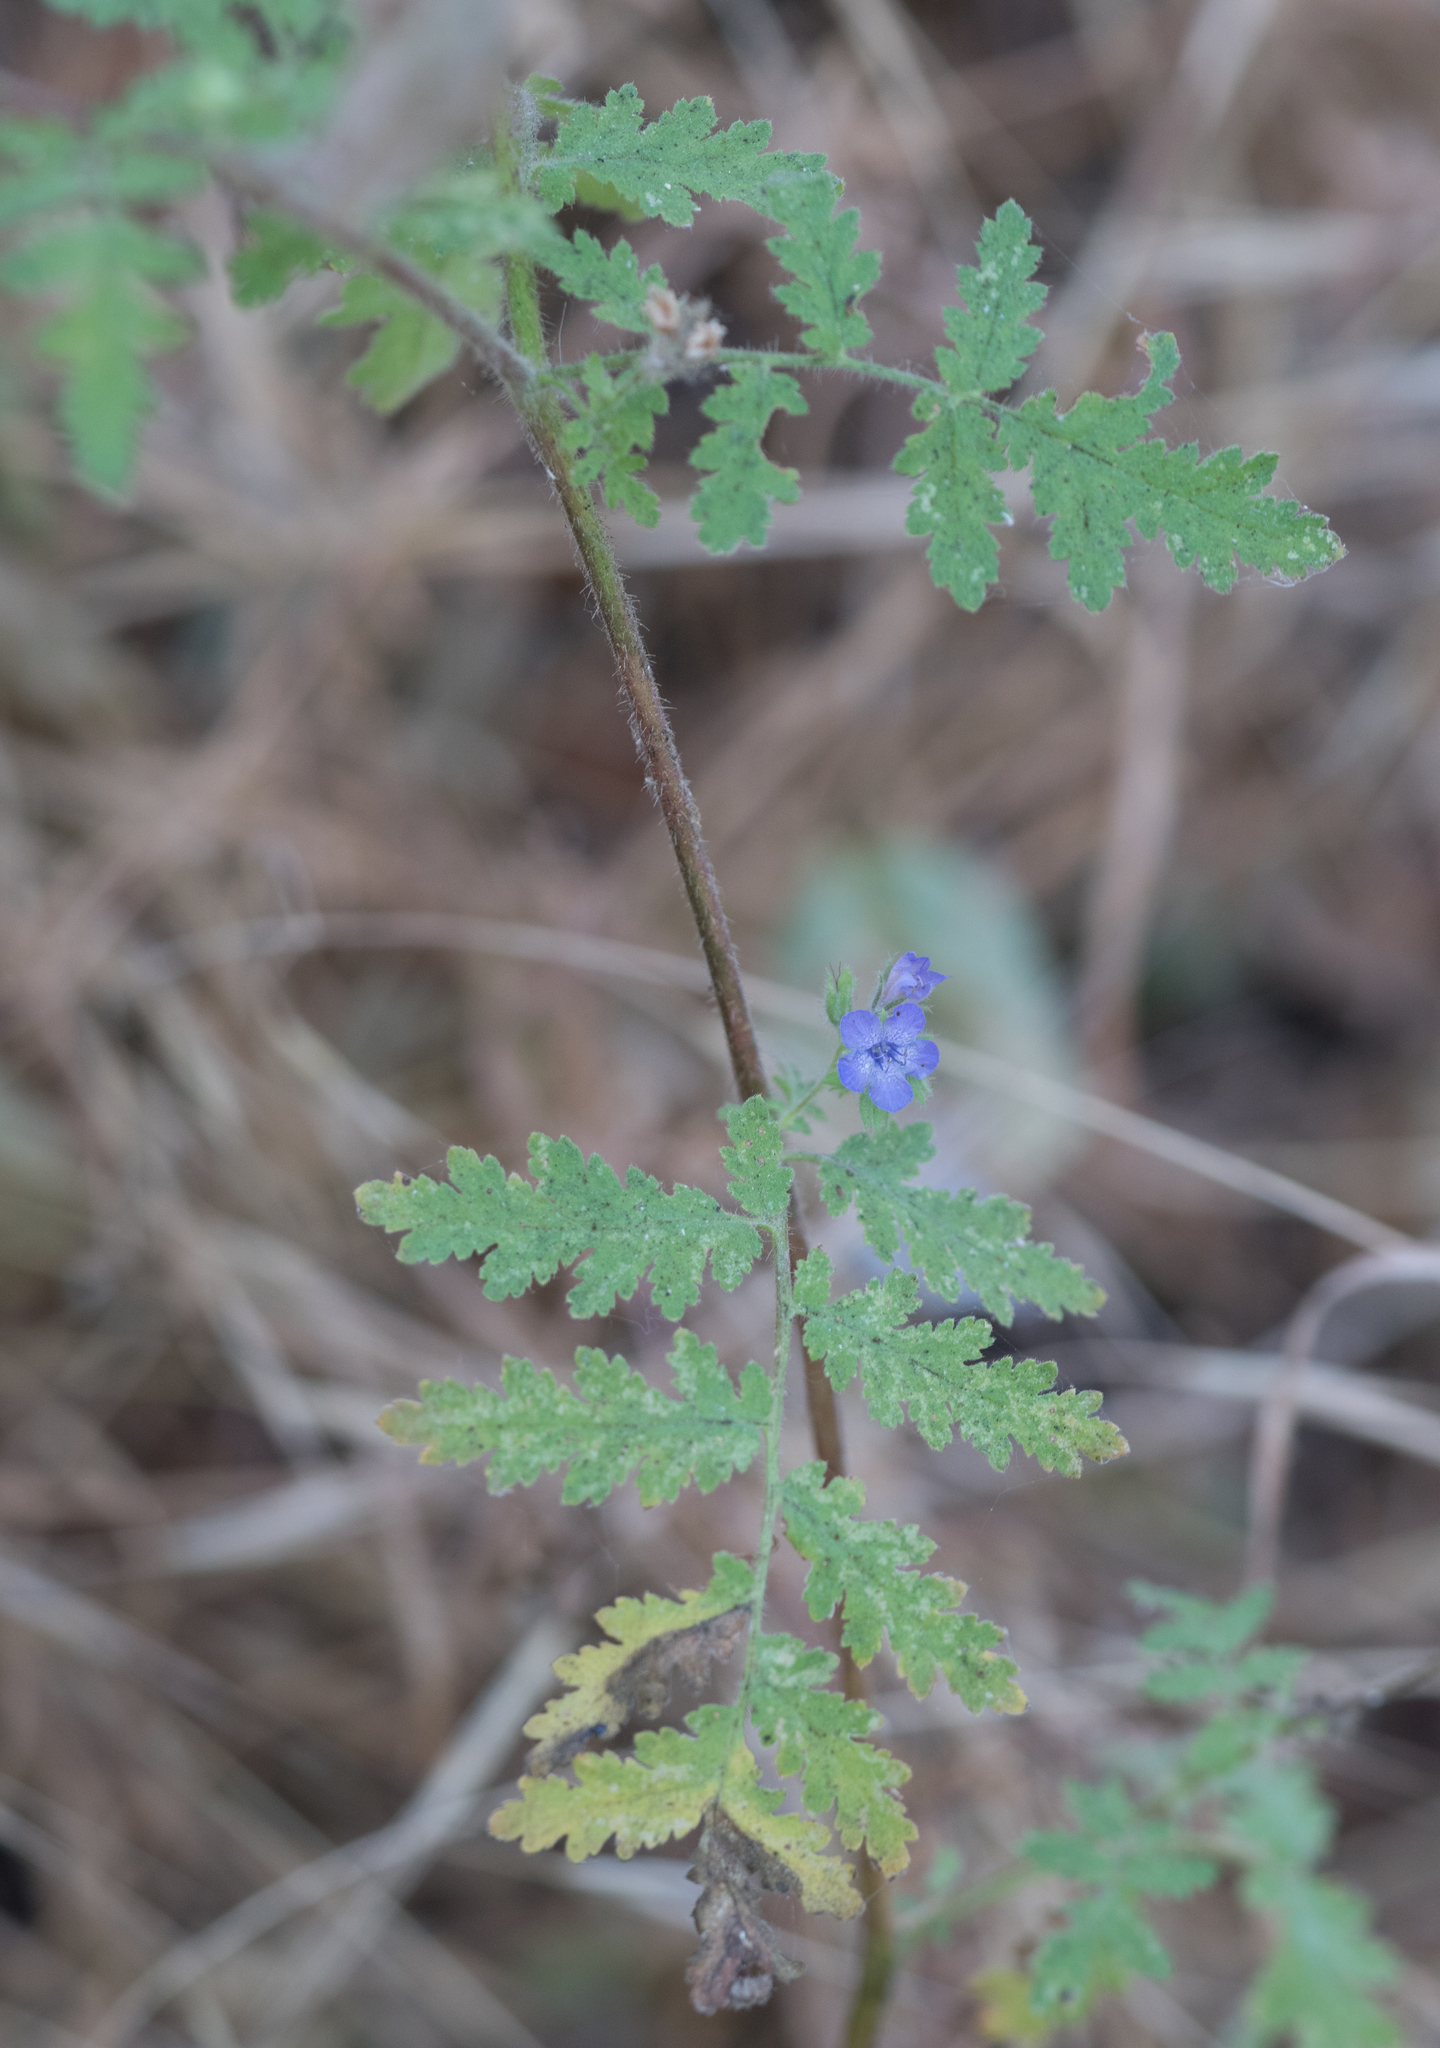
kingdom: Plantae
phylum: Tracheophyta
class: Magnoliopsida
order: Boraginales
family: Hydrophyllaceae
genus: Phacelia
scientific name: Phacelia distans
